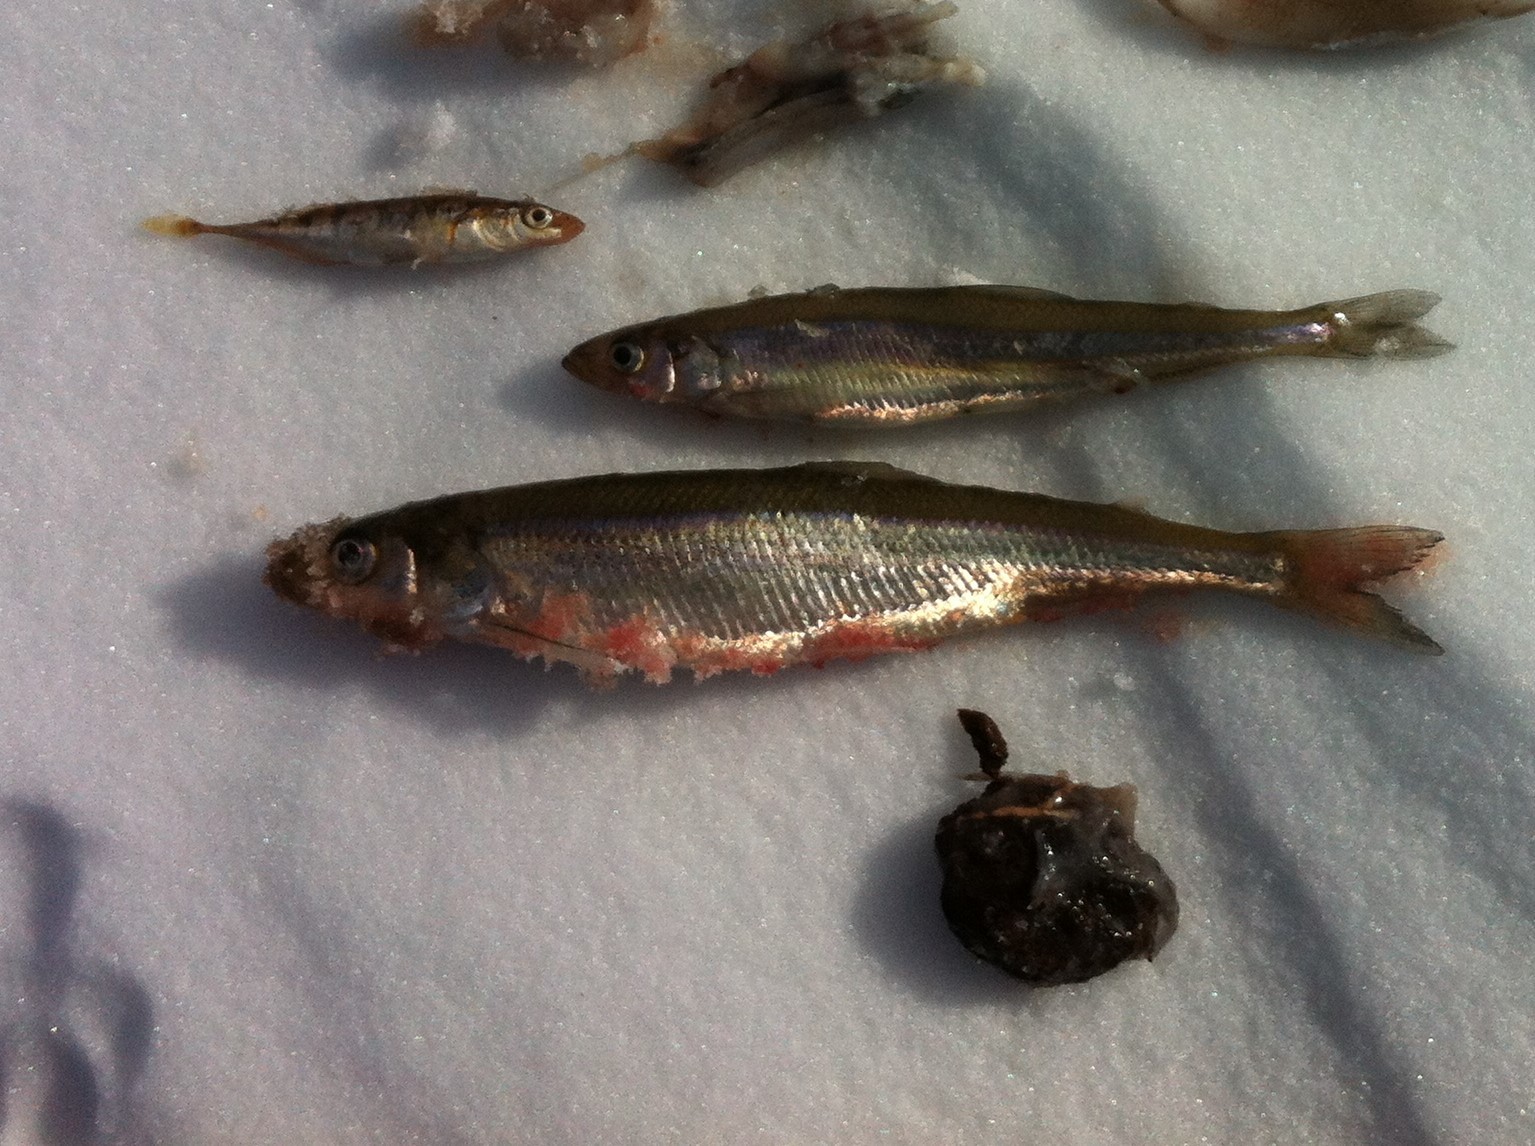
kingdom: Animalia
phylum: Chordata
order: Osmeriformes
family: Osmeridae
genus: Osmerus
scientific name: Osmerus mordax
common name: Rainbow smelt
